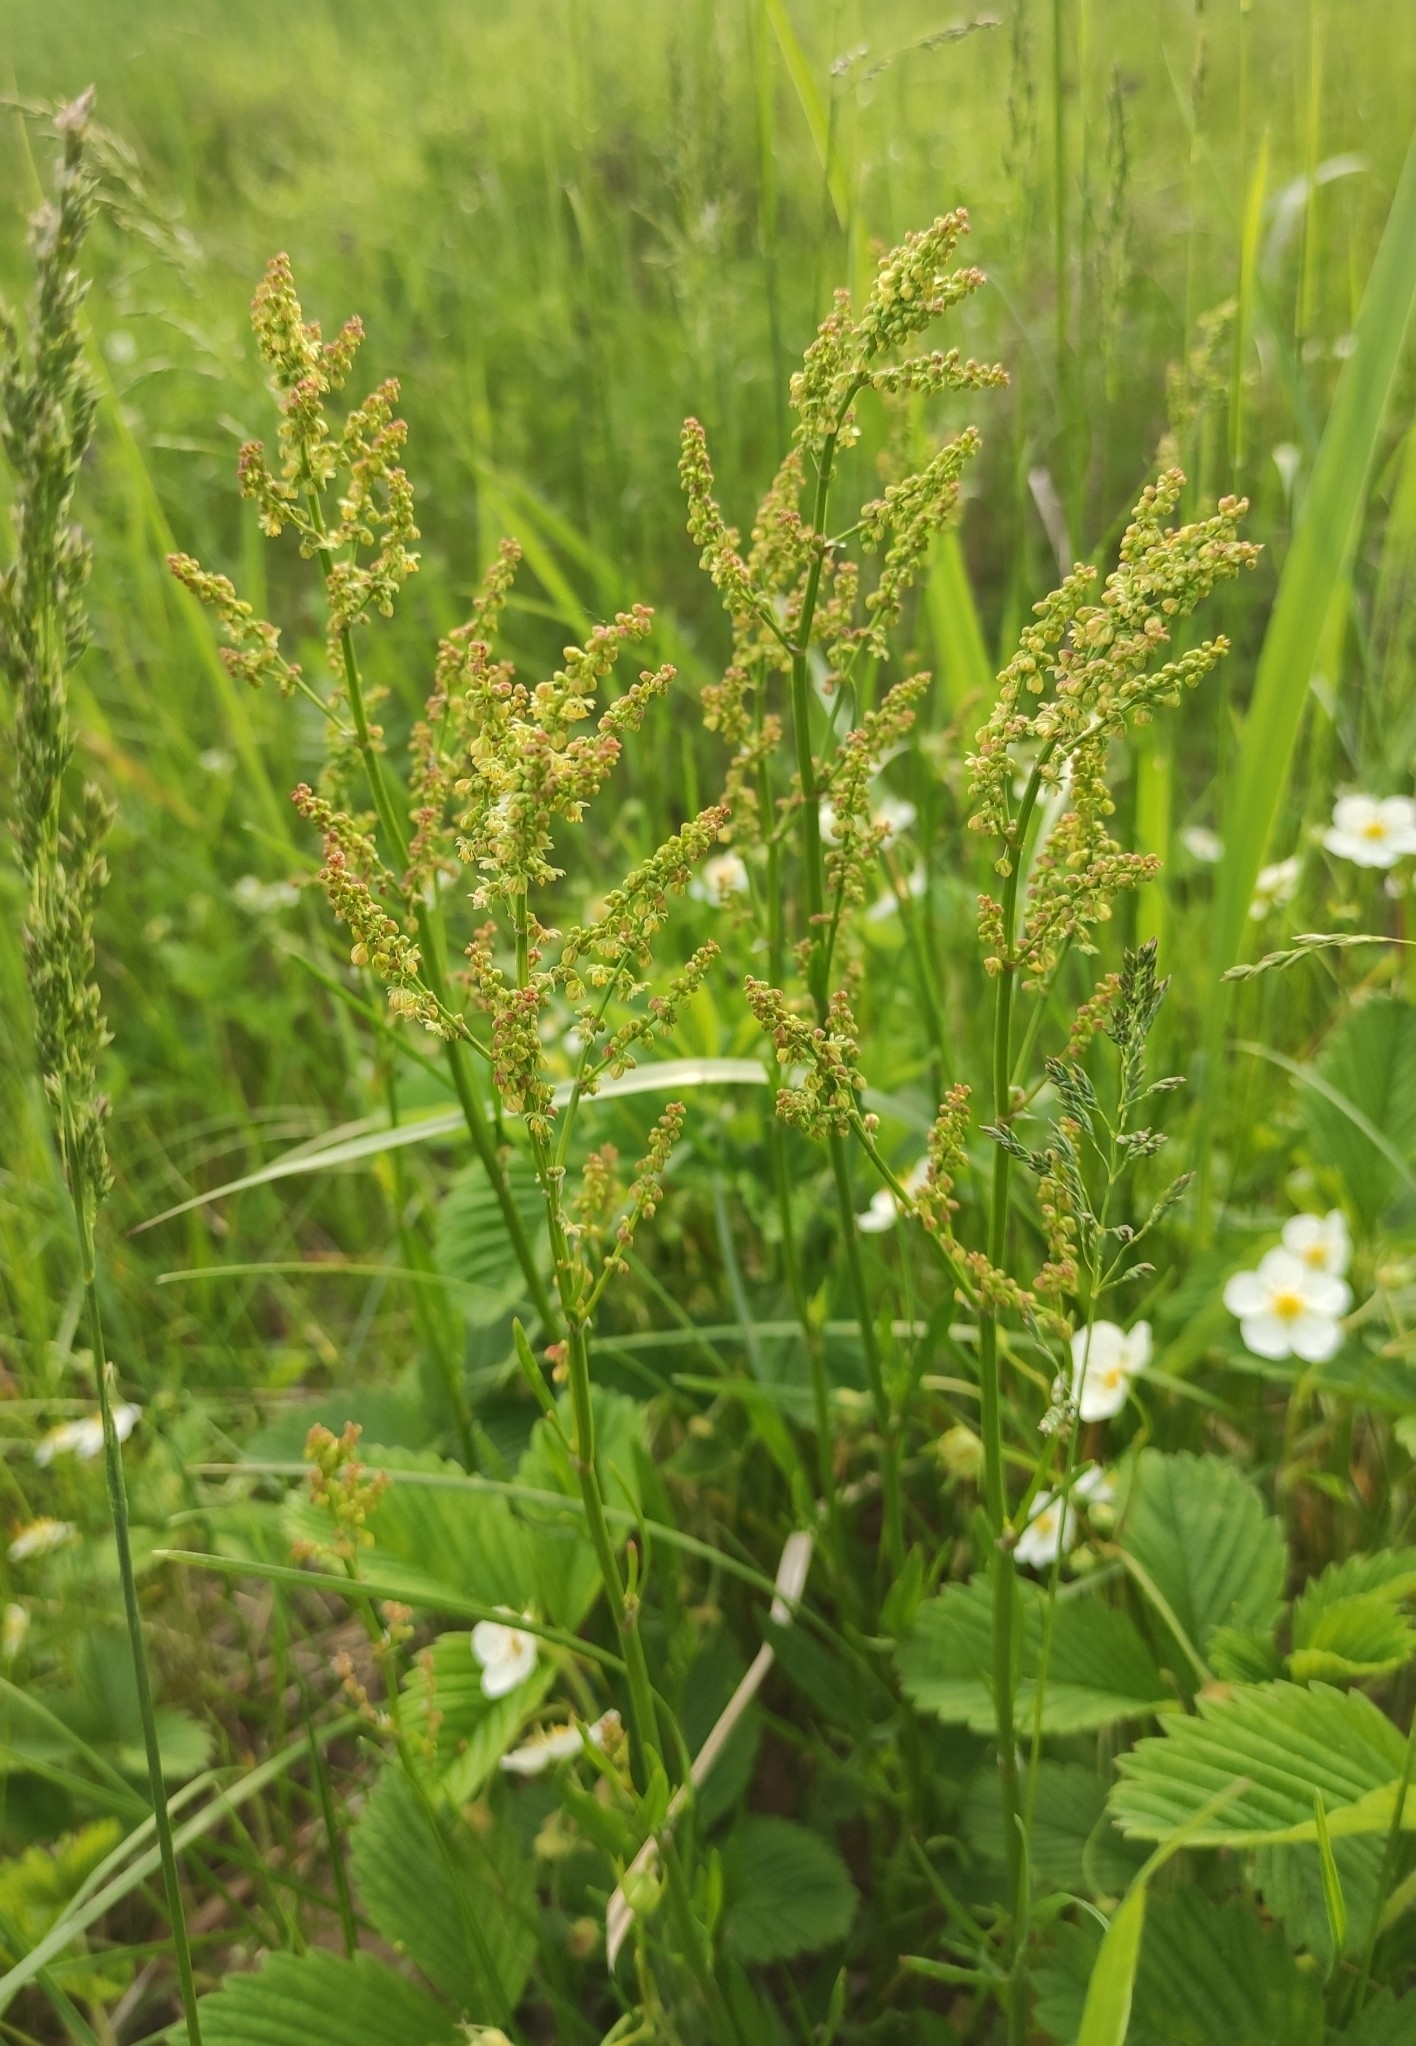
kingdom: Plantae
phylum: Tracheophyta
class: Magnoliopsida
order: Caryophyllales
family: Polygonaceae
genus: Rumex
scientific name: Rumex acetosella
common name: Common sheep sorrel
